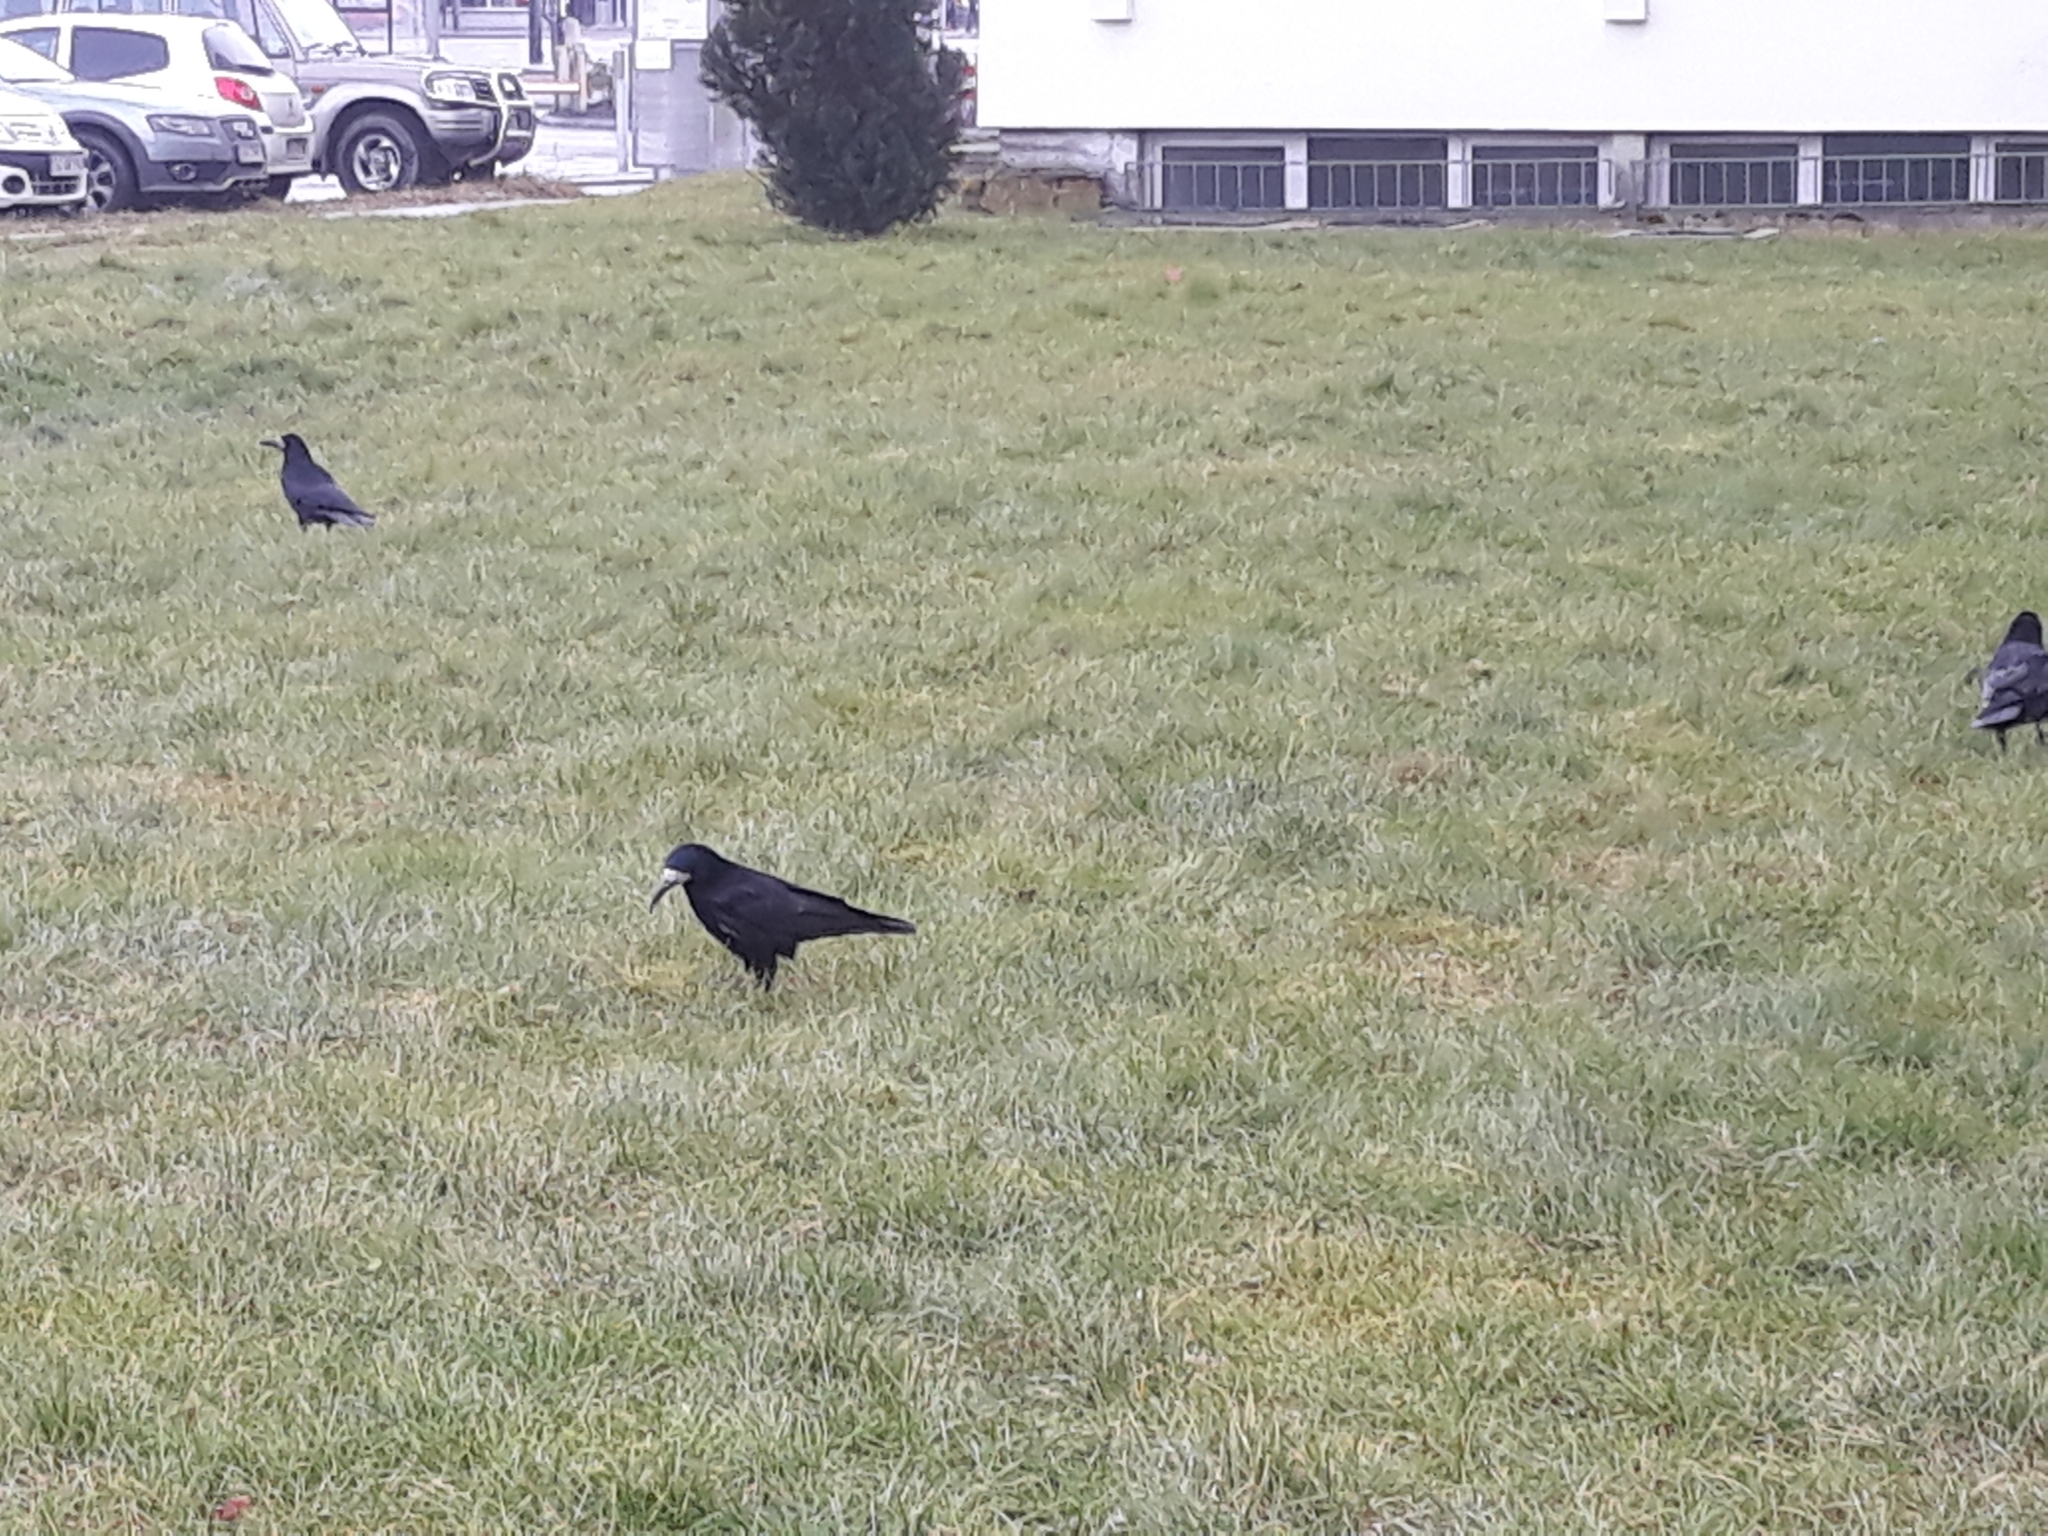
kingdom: Animalia
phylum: Chordata
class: Aves
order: Passeriformes
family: Corvidae
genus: Corvus
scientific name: Corvus frugilegus
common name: Rook
